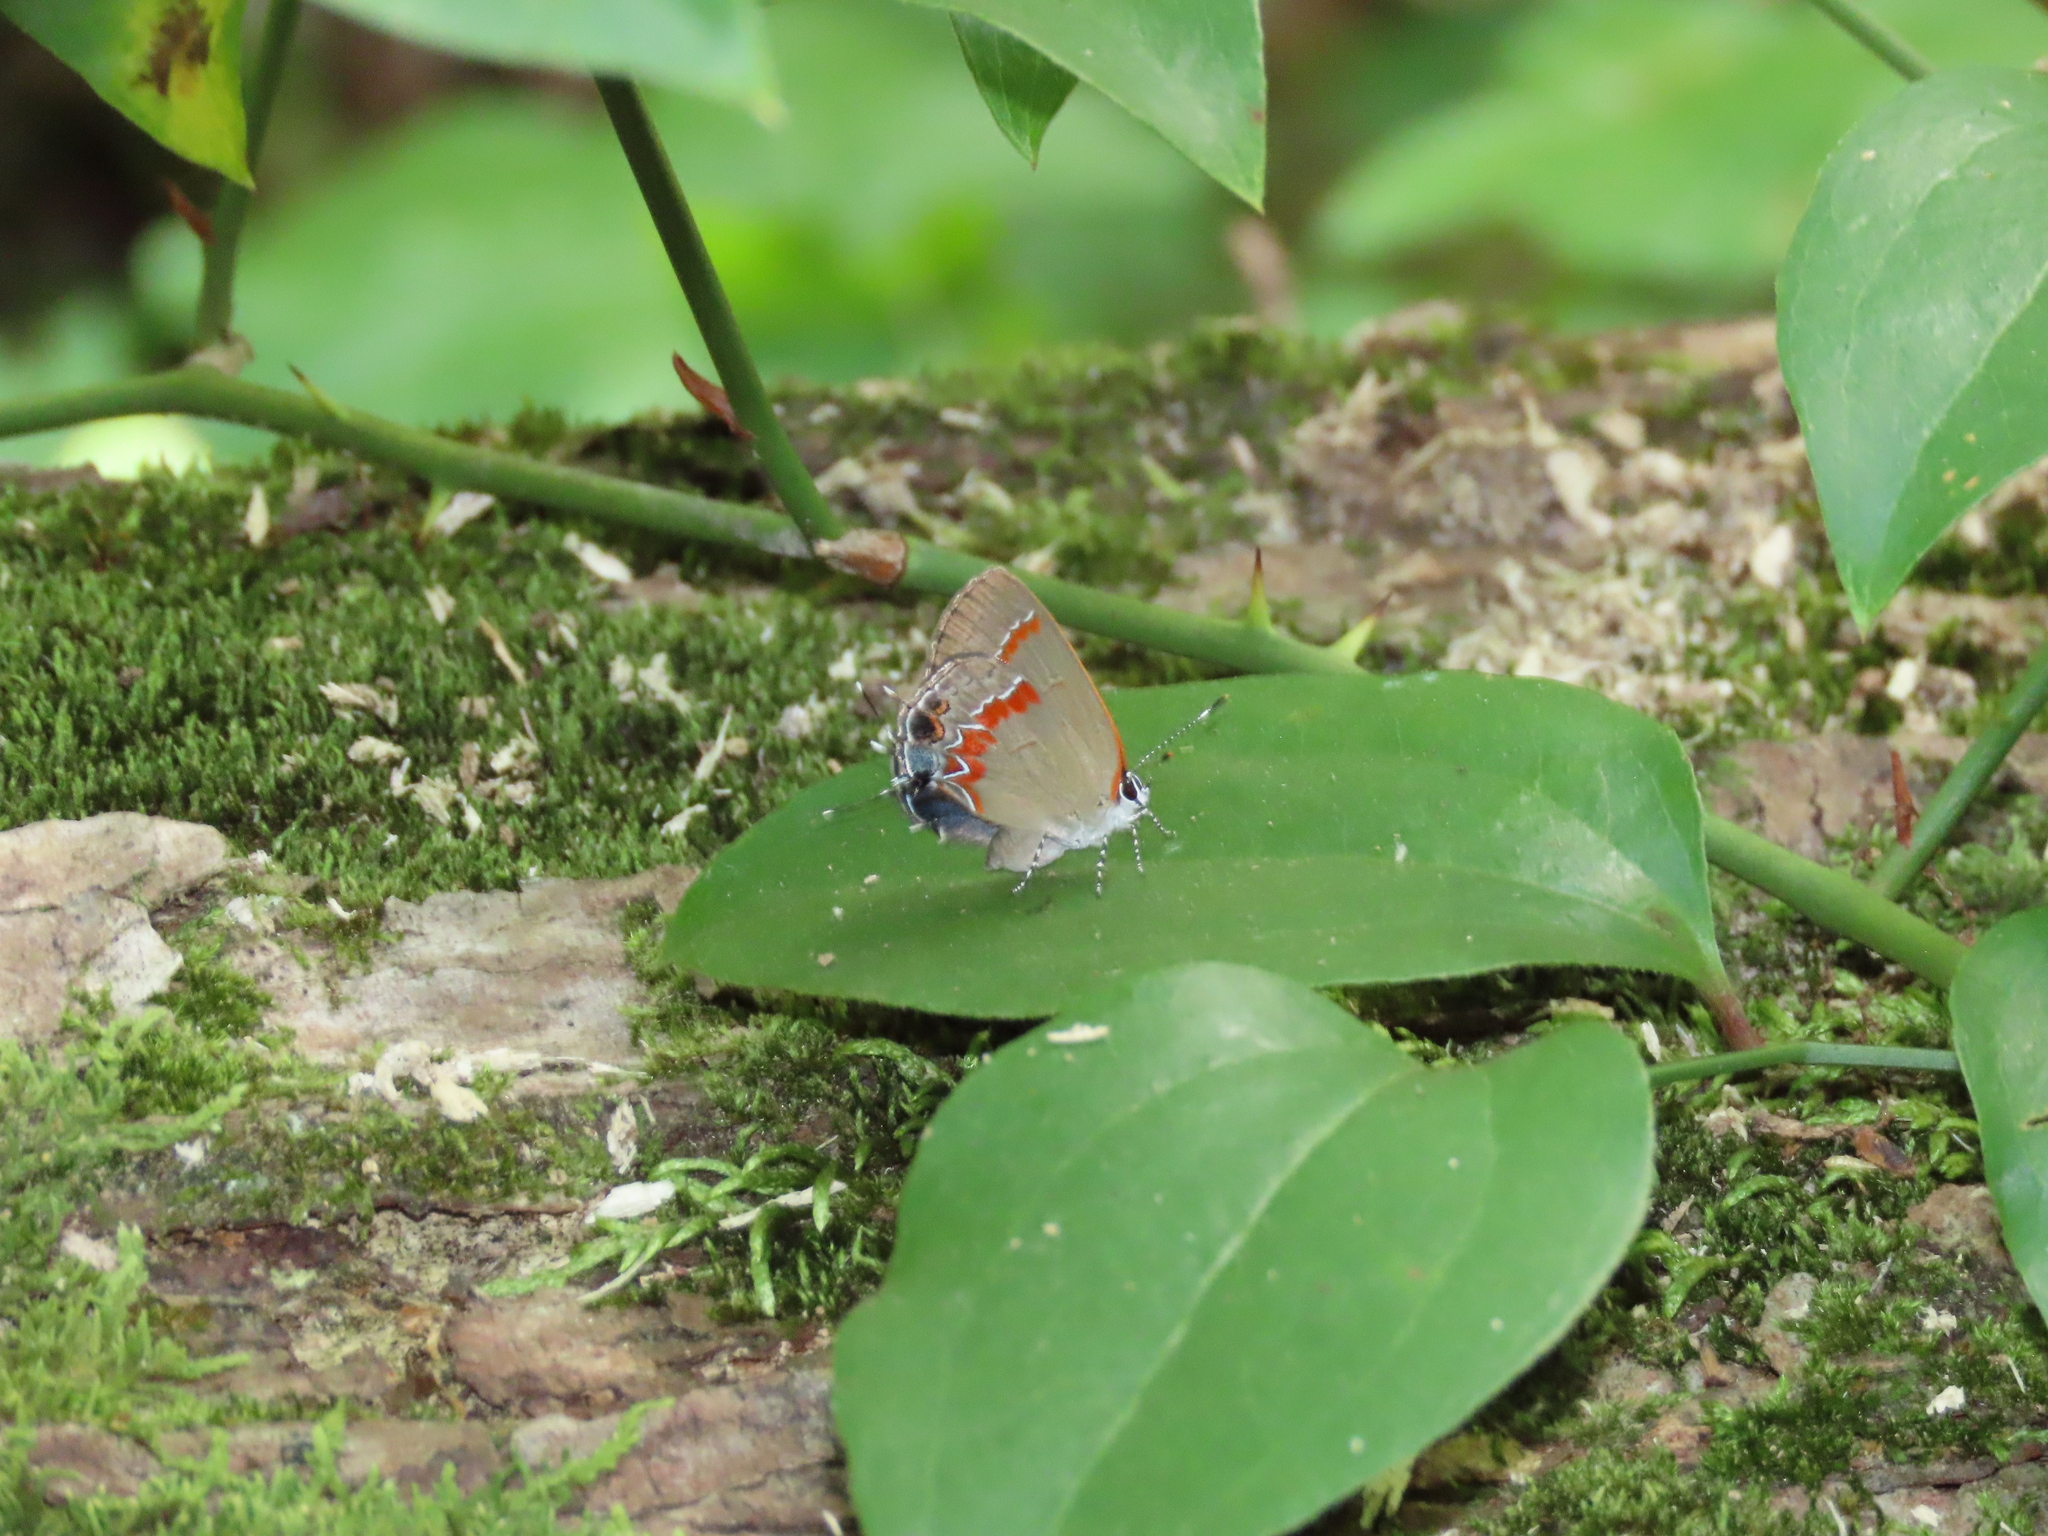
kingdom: Animalia
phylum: Arthropoda
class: Insecta
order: Lepidoptera
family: Lycaenidae
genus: Calycopis
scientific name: Calycopis cecrops
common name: Red-banded hairstreak
